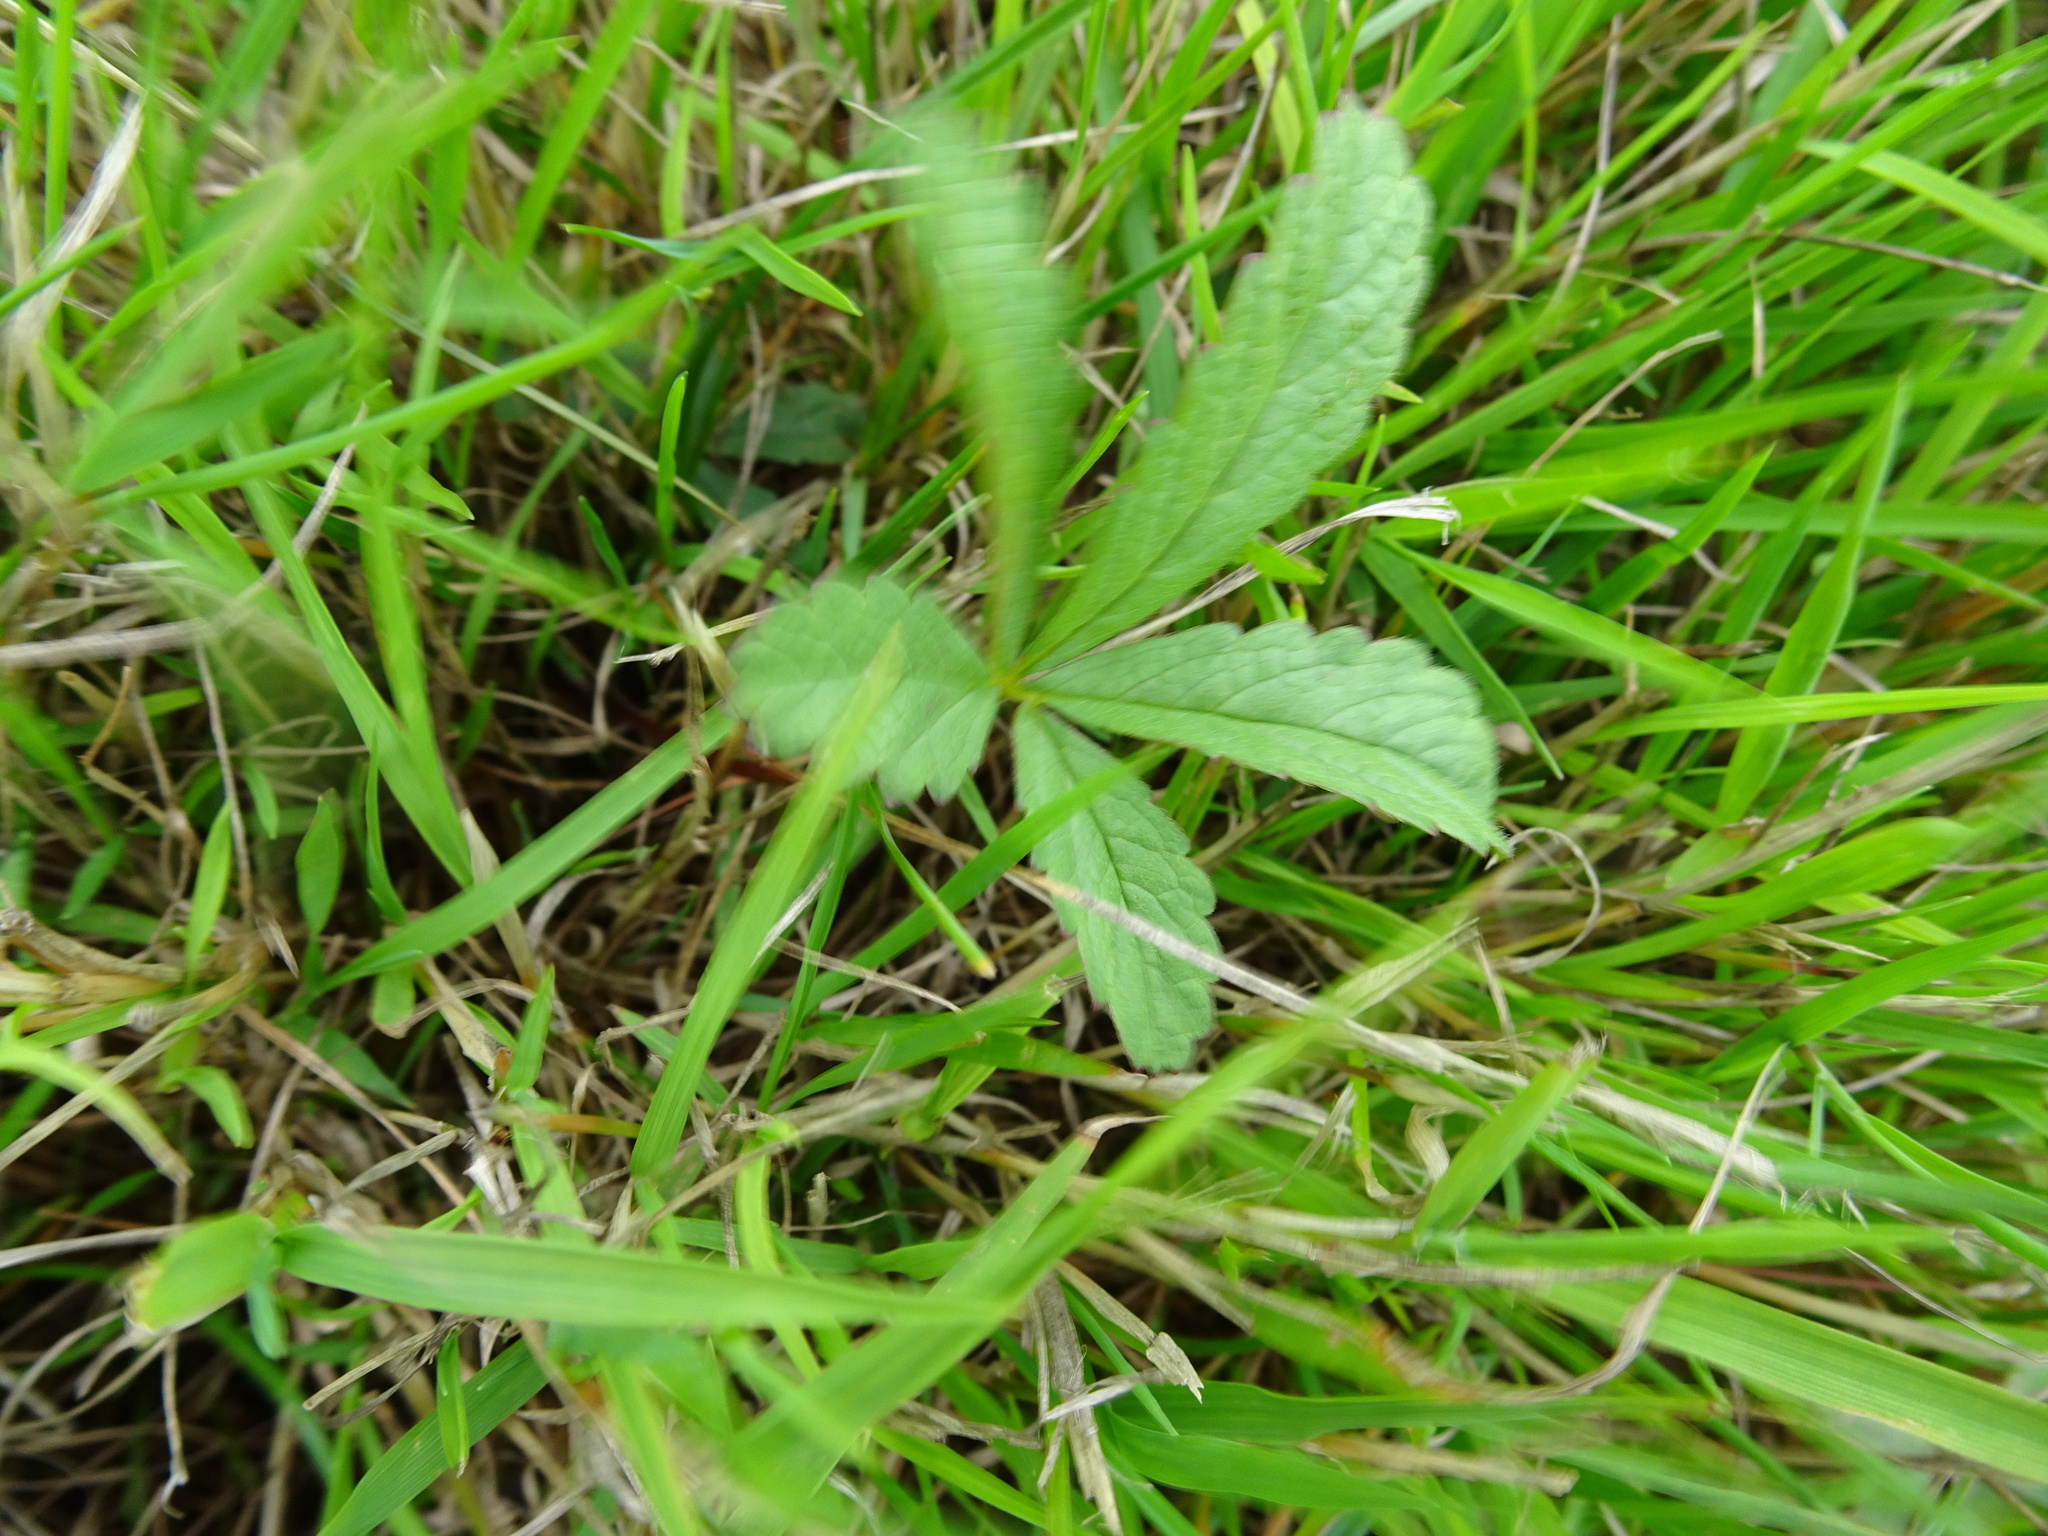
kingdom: Plantae
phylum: Tracheophyta
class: Magnoliopsida
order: Rosales
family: Rosaceae
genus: Potentilla
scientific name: Potentilla reptans
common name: Creeping cinquefoil
